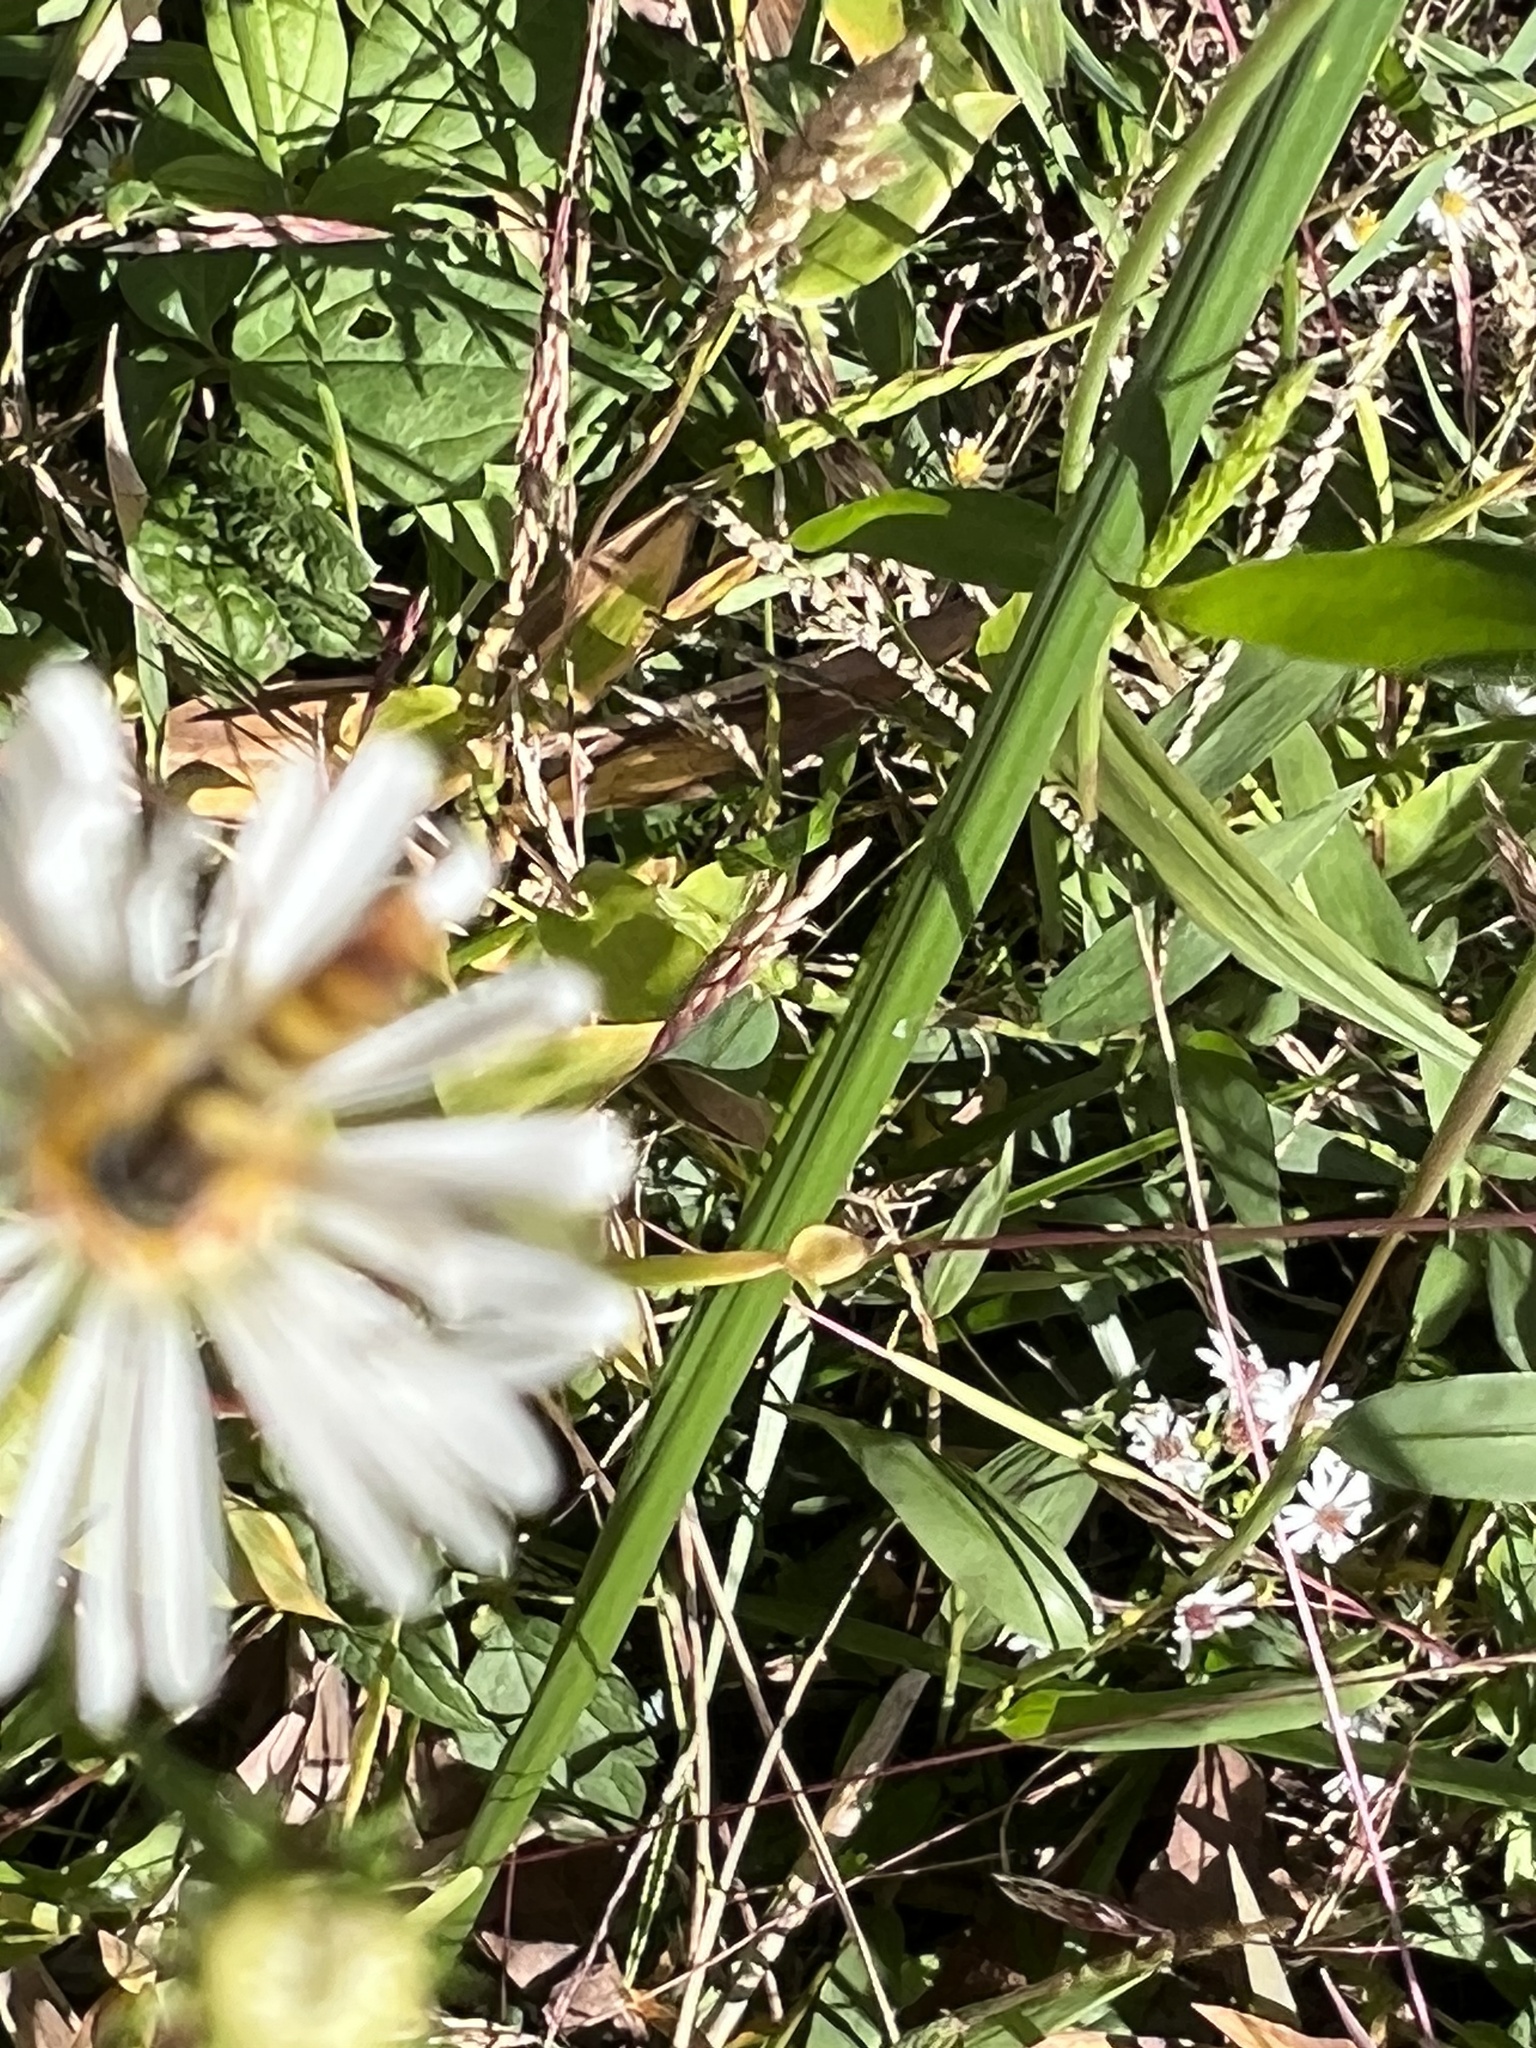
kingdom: Animalia
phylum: Arthropoda
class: Insecta
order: Diptera
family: Syrphidae
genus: Sphaerophoria
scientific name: Sphaerophoria contigua
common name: Tufted globetail
